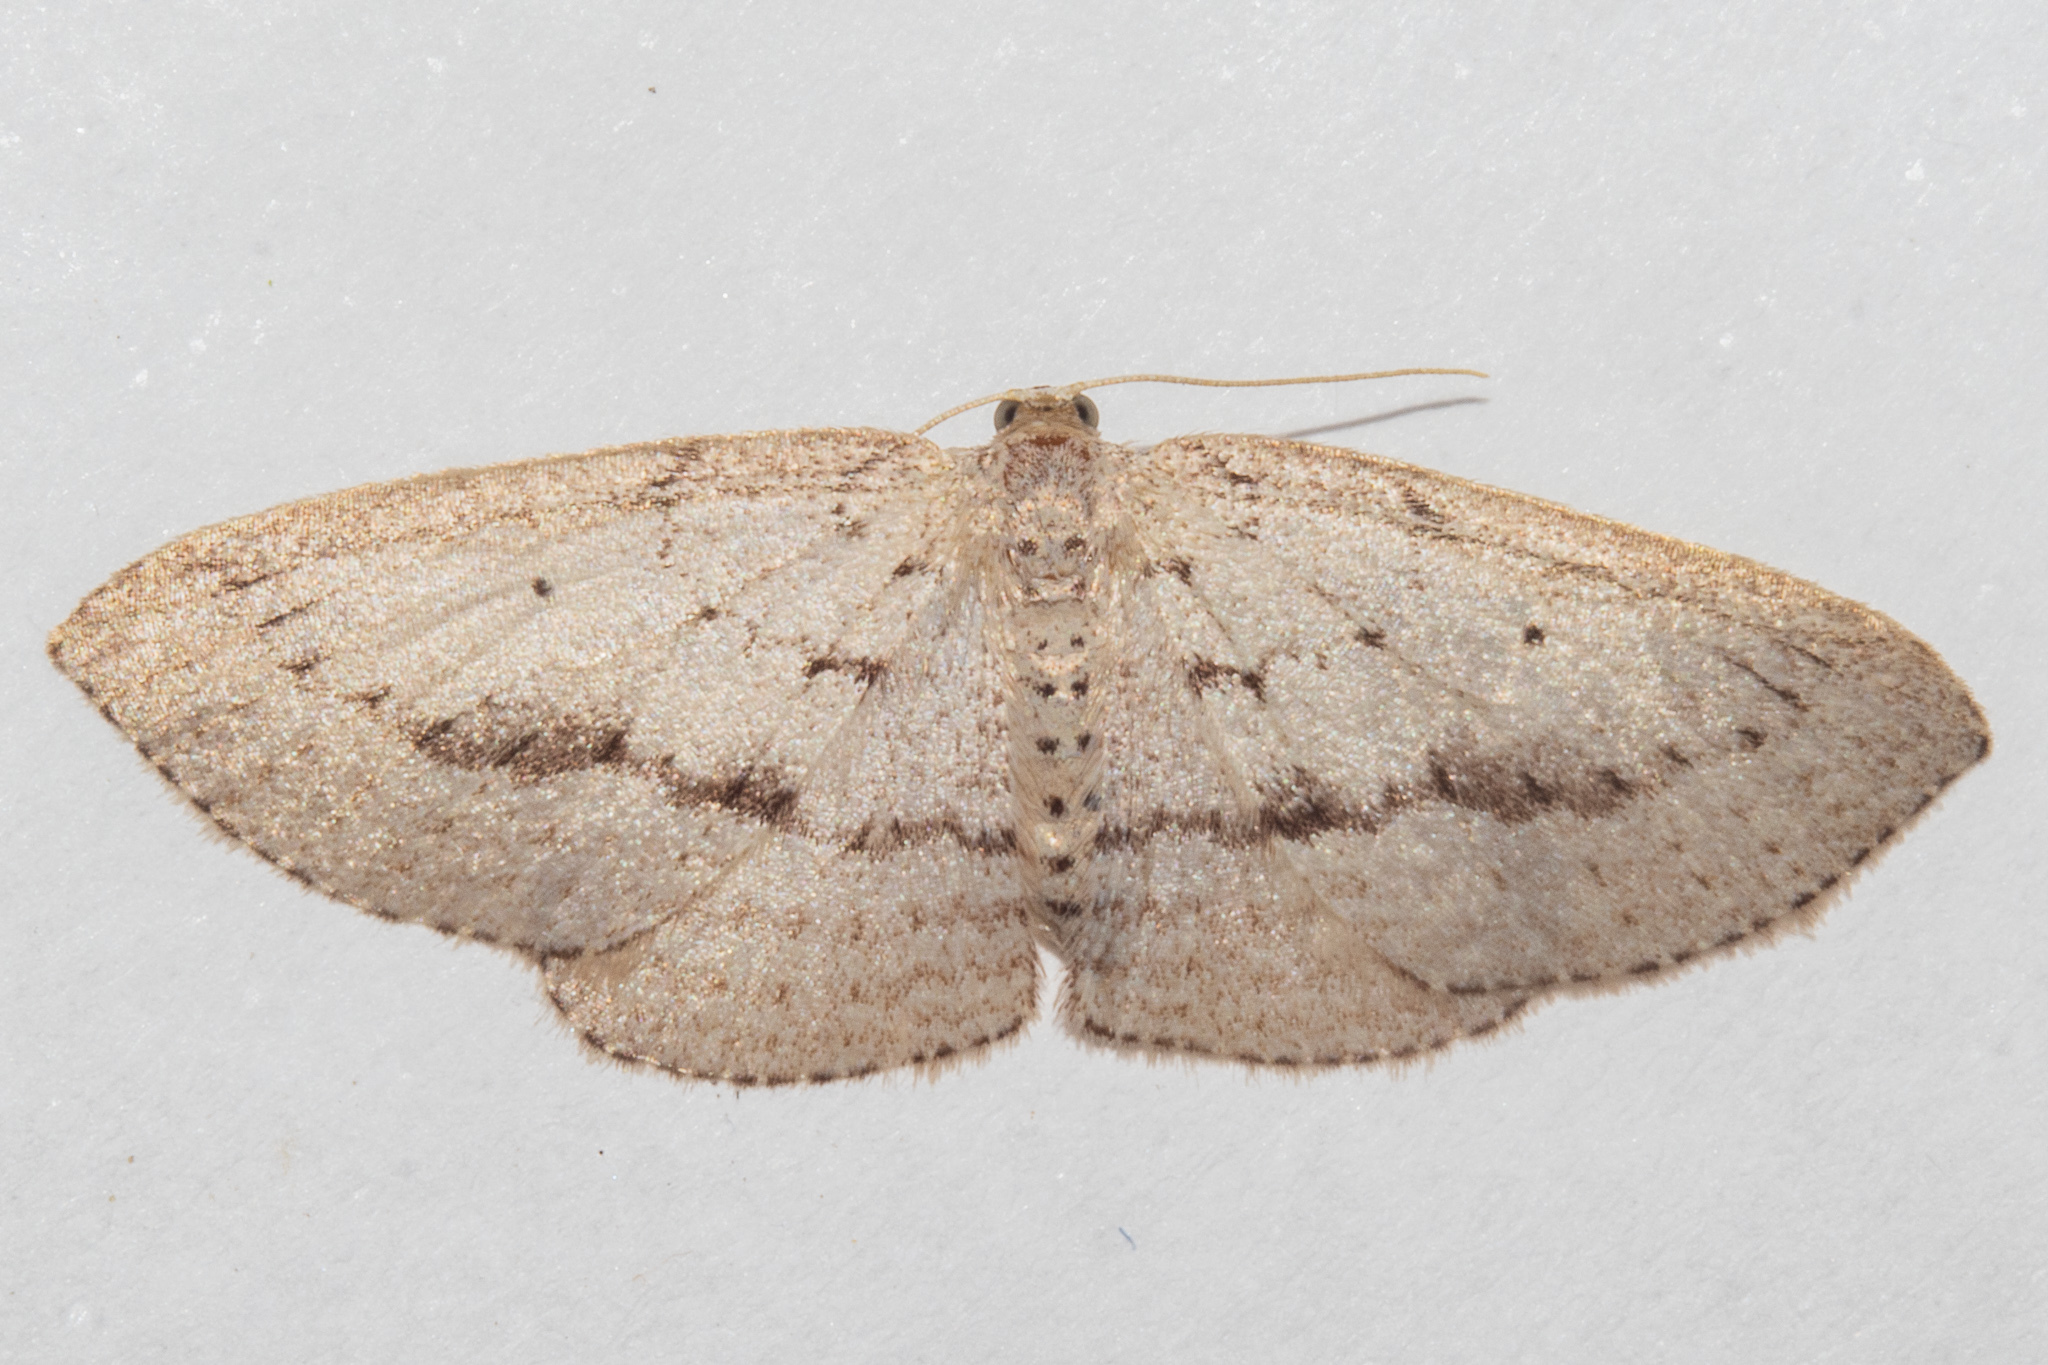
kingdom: Animalia
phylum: Arthropoda
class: Insecta
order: Lepidoptera
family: Geometridae
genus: Poecilasthena
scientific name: Poecilasthena schistaria
